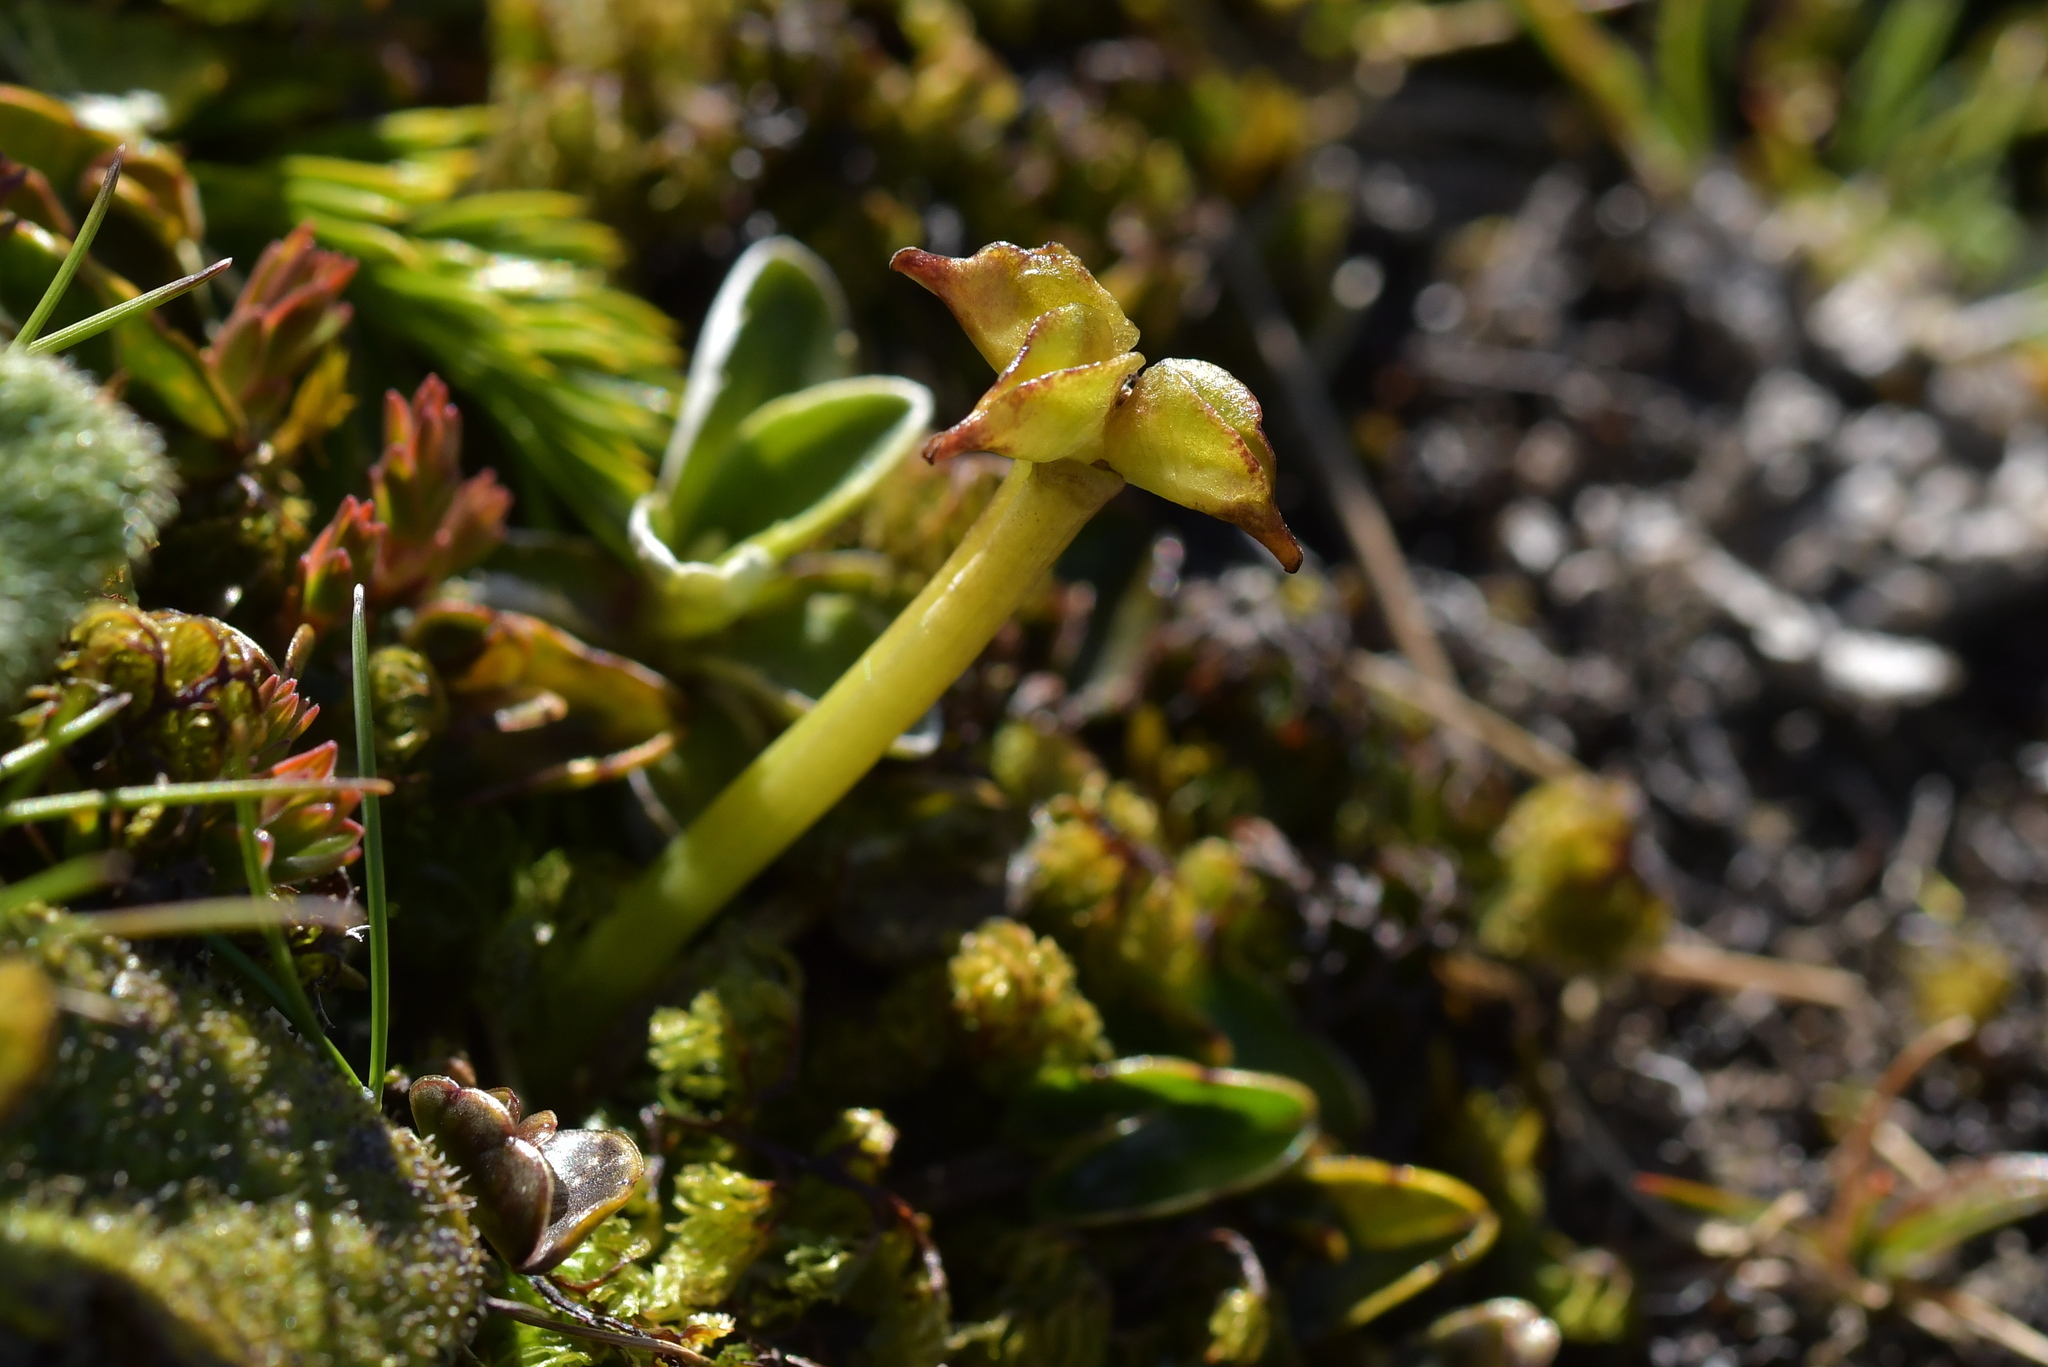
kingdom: Plantae
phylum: Tracheophyta
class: Magnoliopsida
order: Ranunculales
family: Ranunculaceae
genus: Caltha
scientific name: Caltha novae-zelandiae
